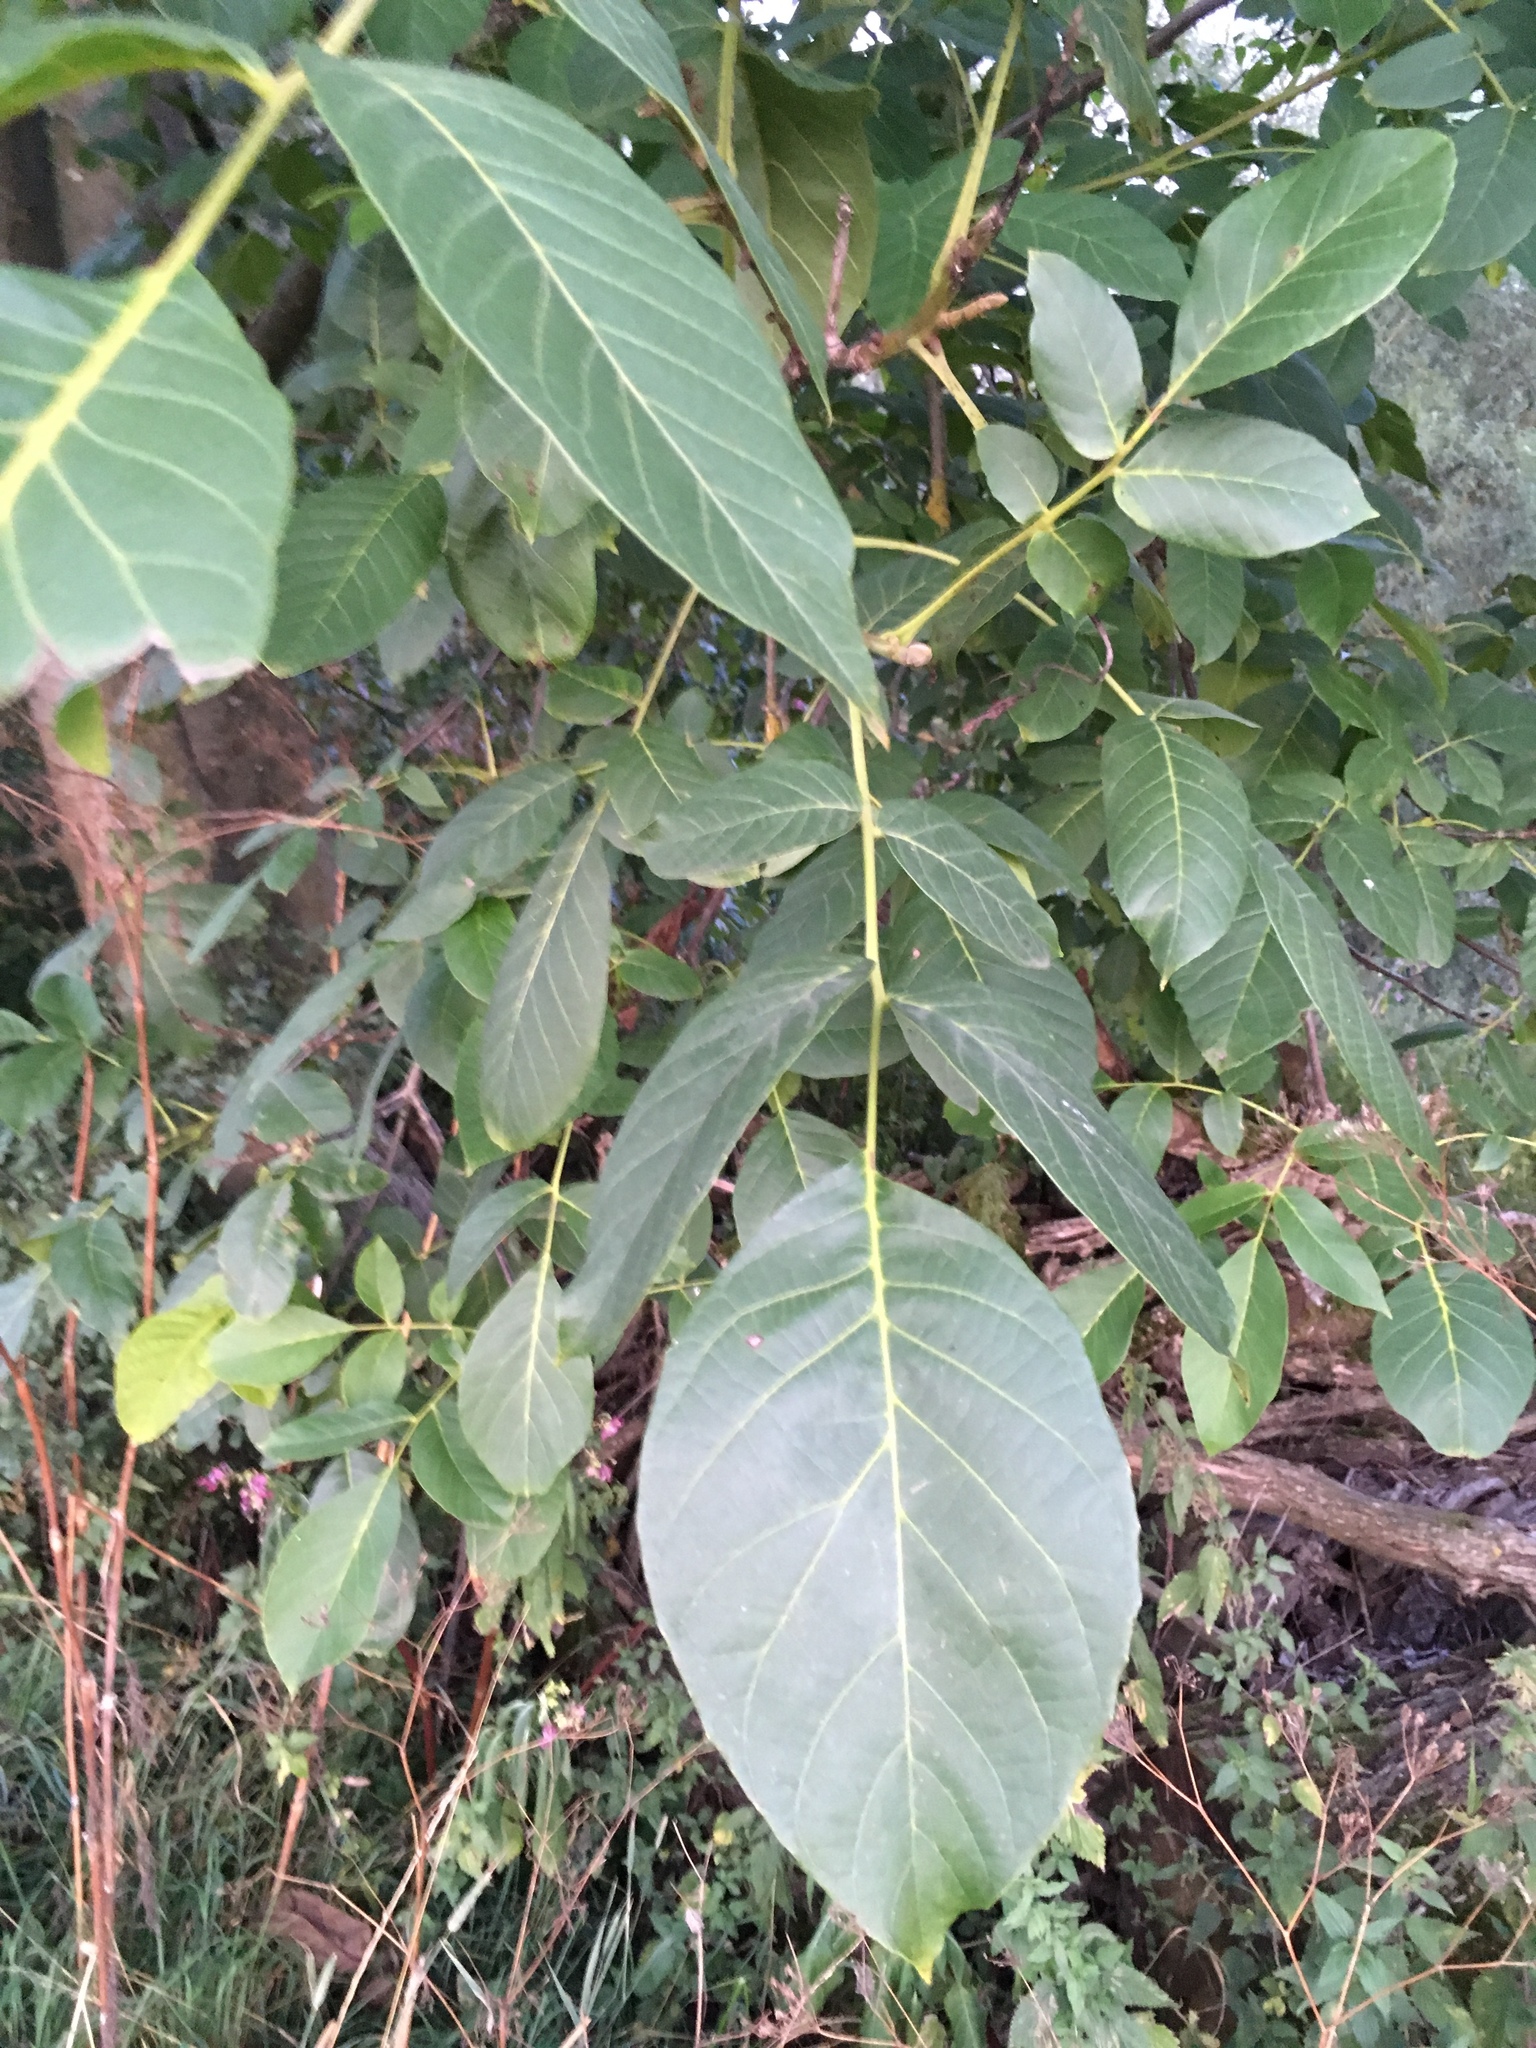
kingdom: Plantae
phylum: Tracheophyta
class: Magnoliopsida
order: Fagales
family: Juglandaceae
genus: Juglans
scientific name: Juglans regia
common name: Walnut
